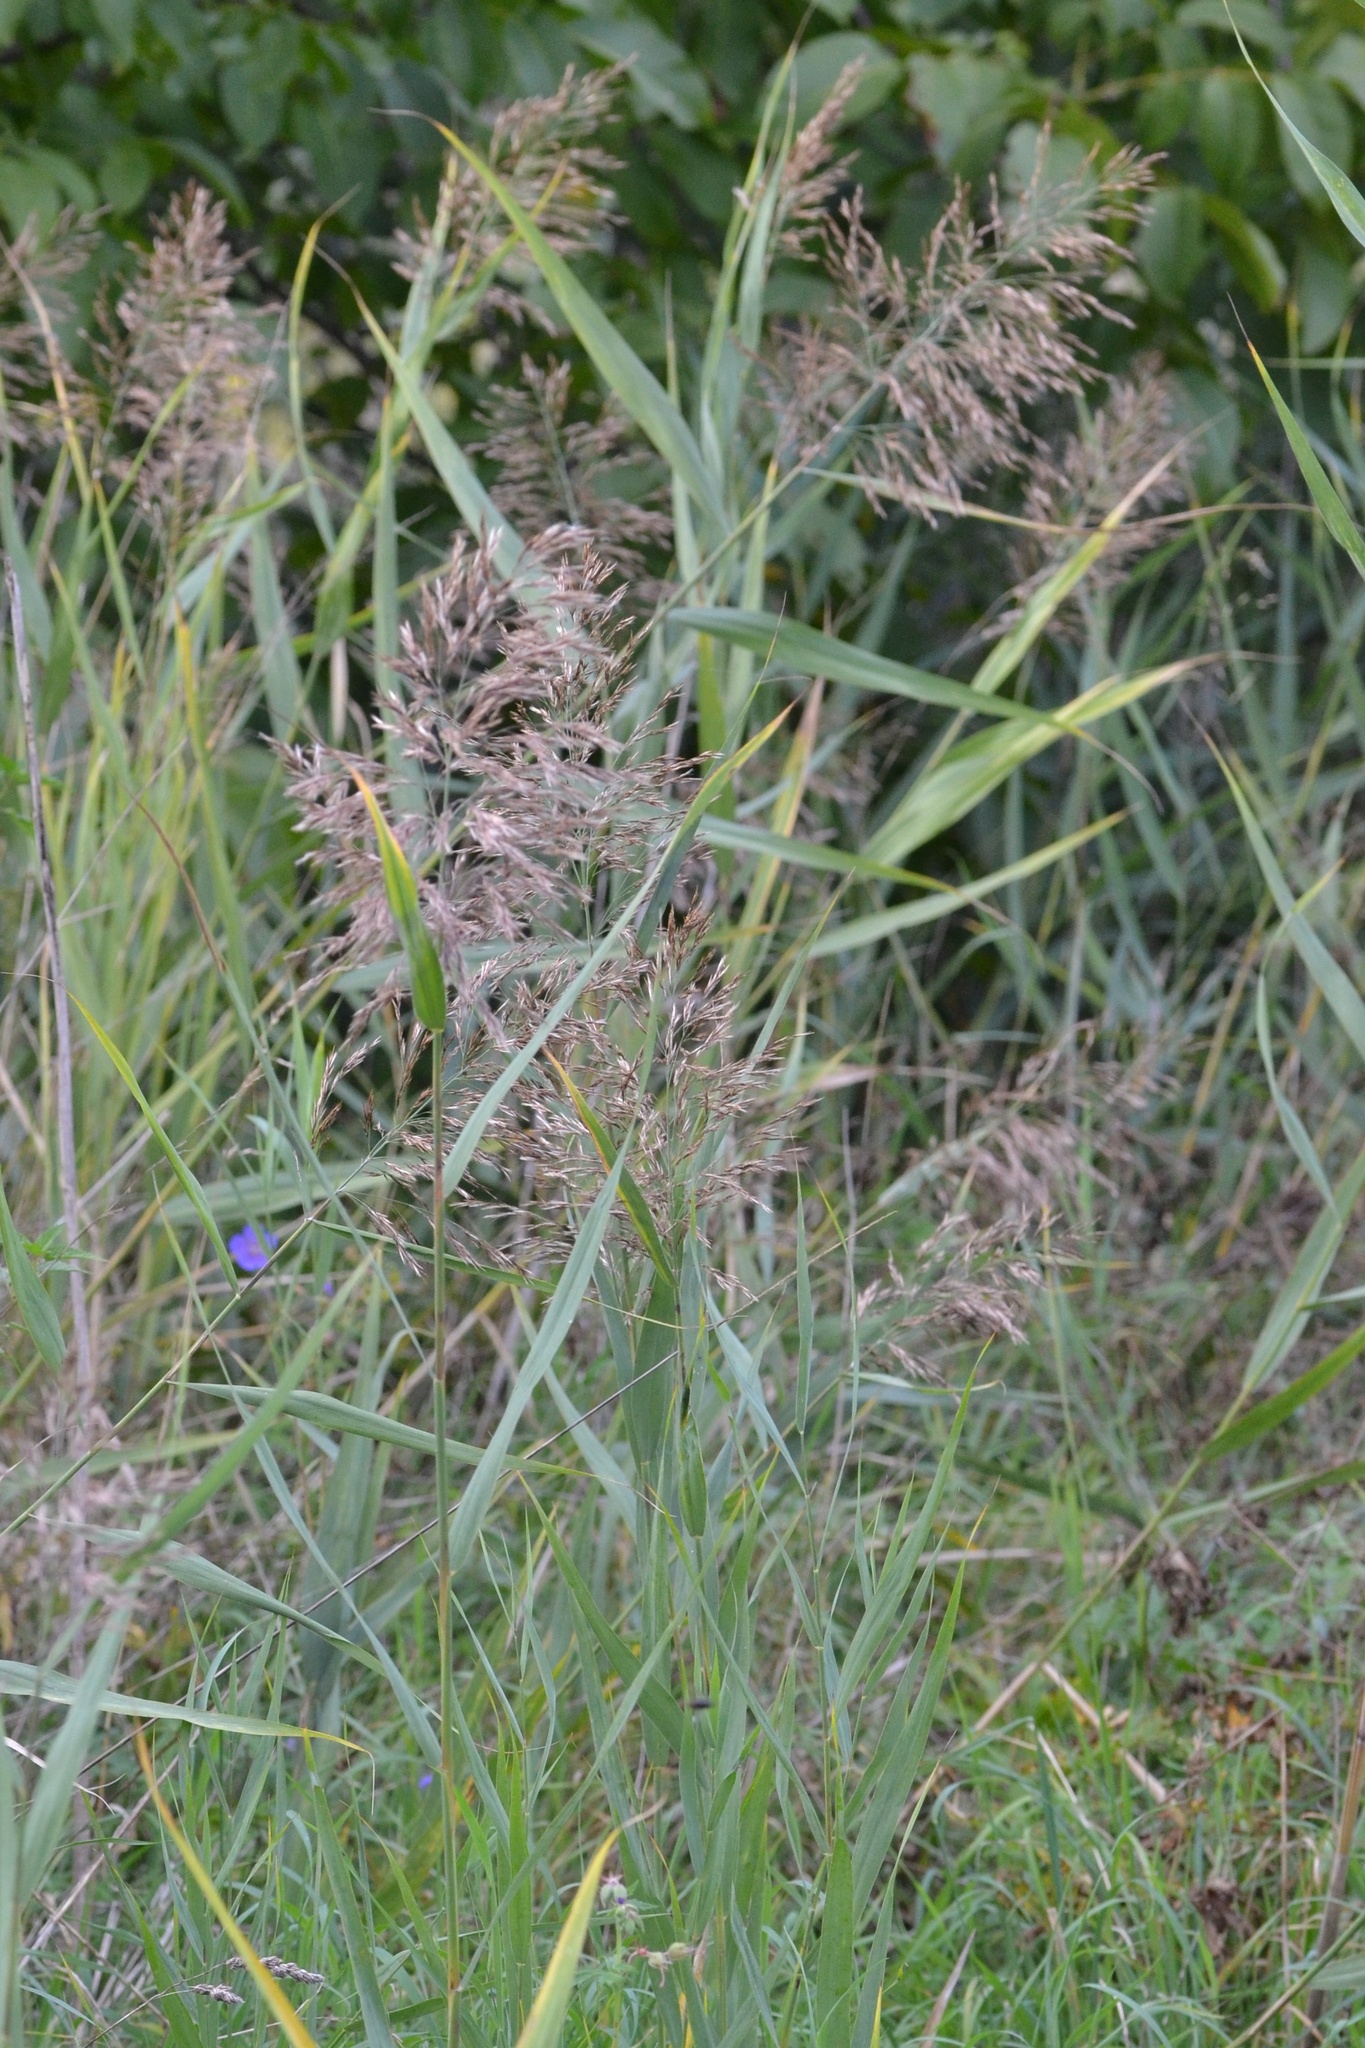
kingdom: Plantae
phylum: Tracheophyta
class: Liliopsida
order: Poales
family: Poaceae
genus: Phragmites
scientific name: Phragmites australis
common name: Common reed
